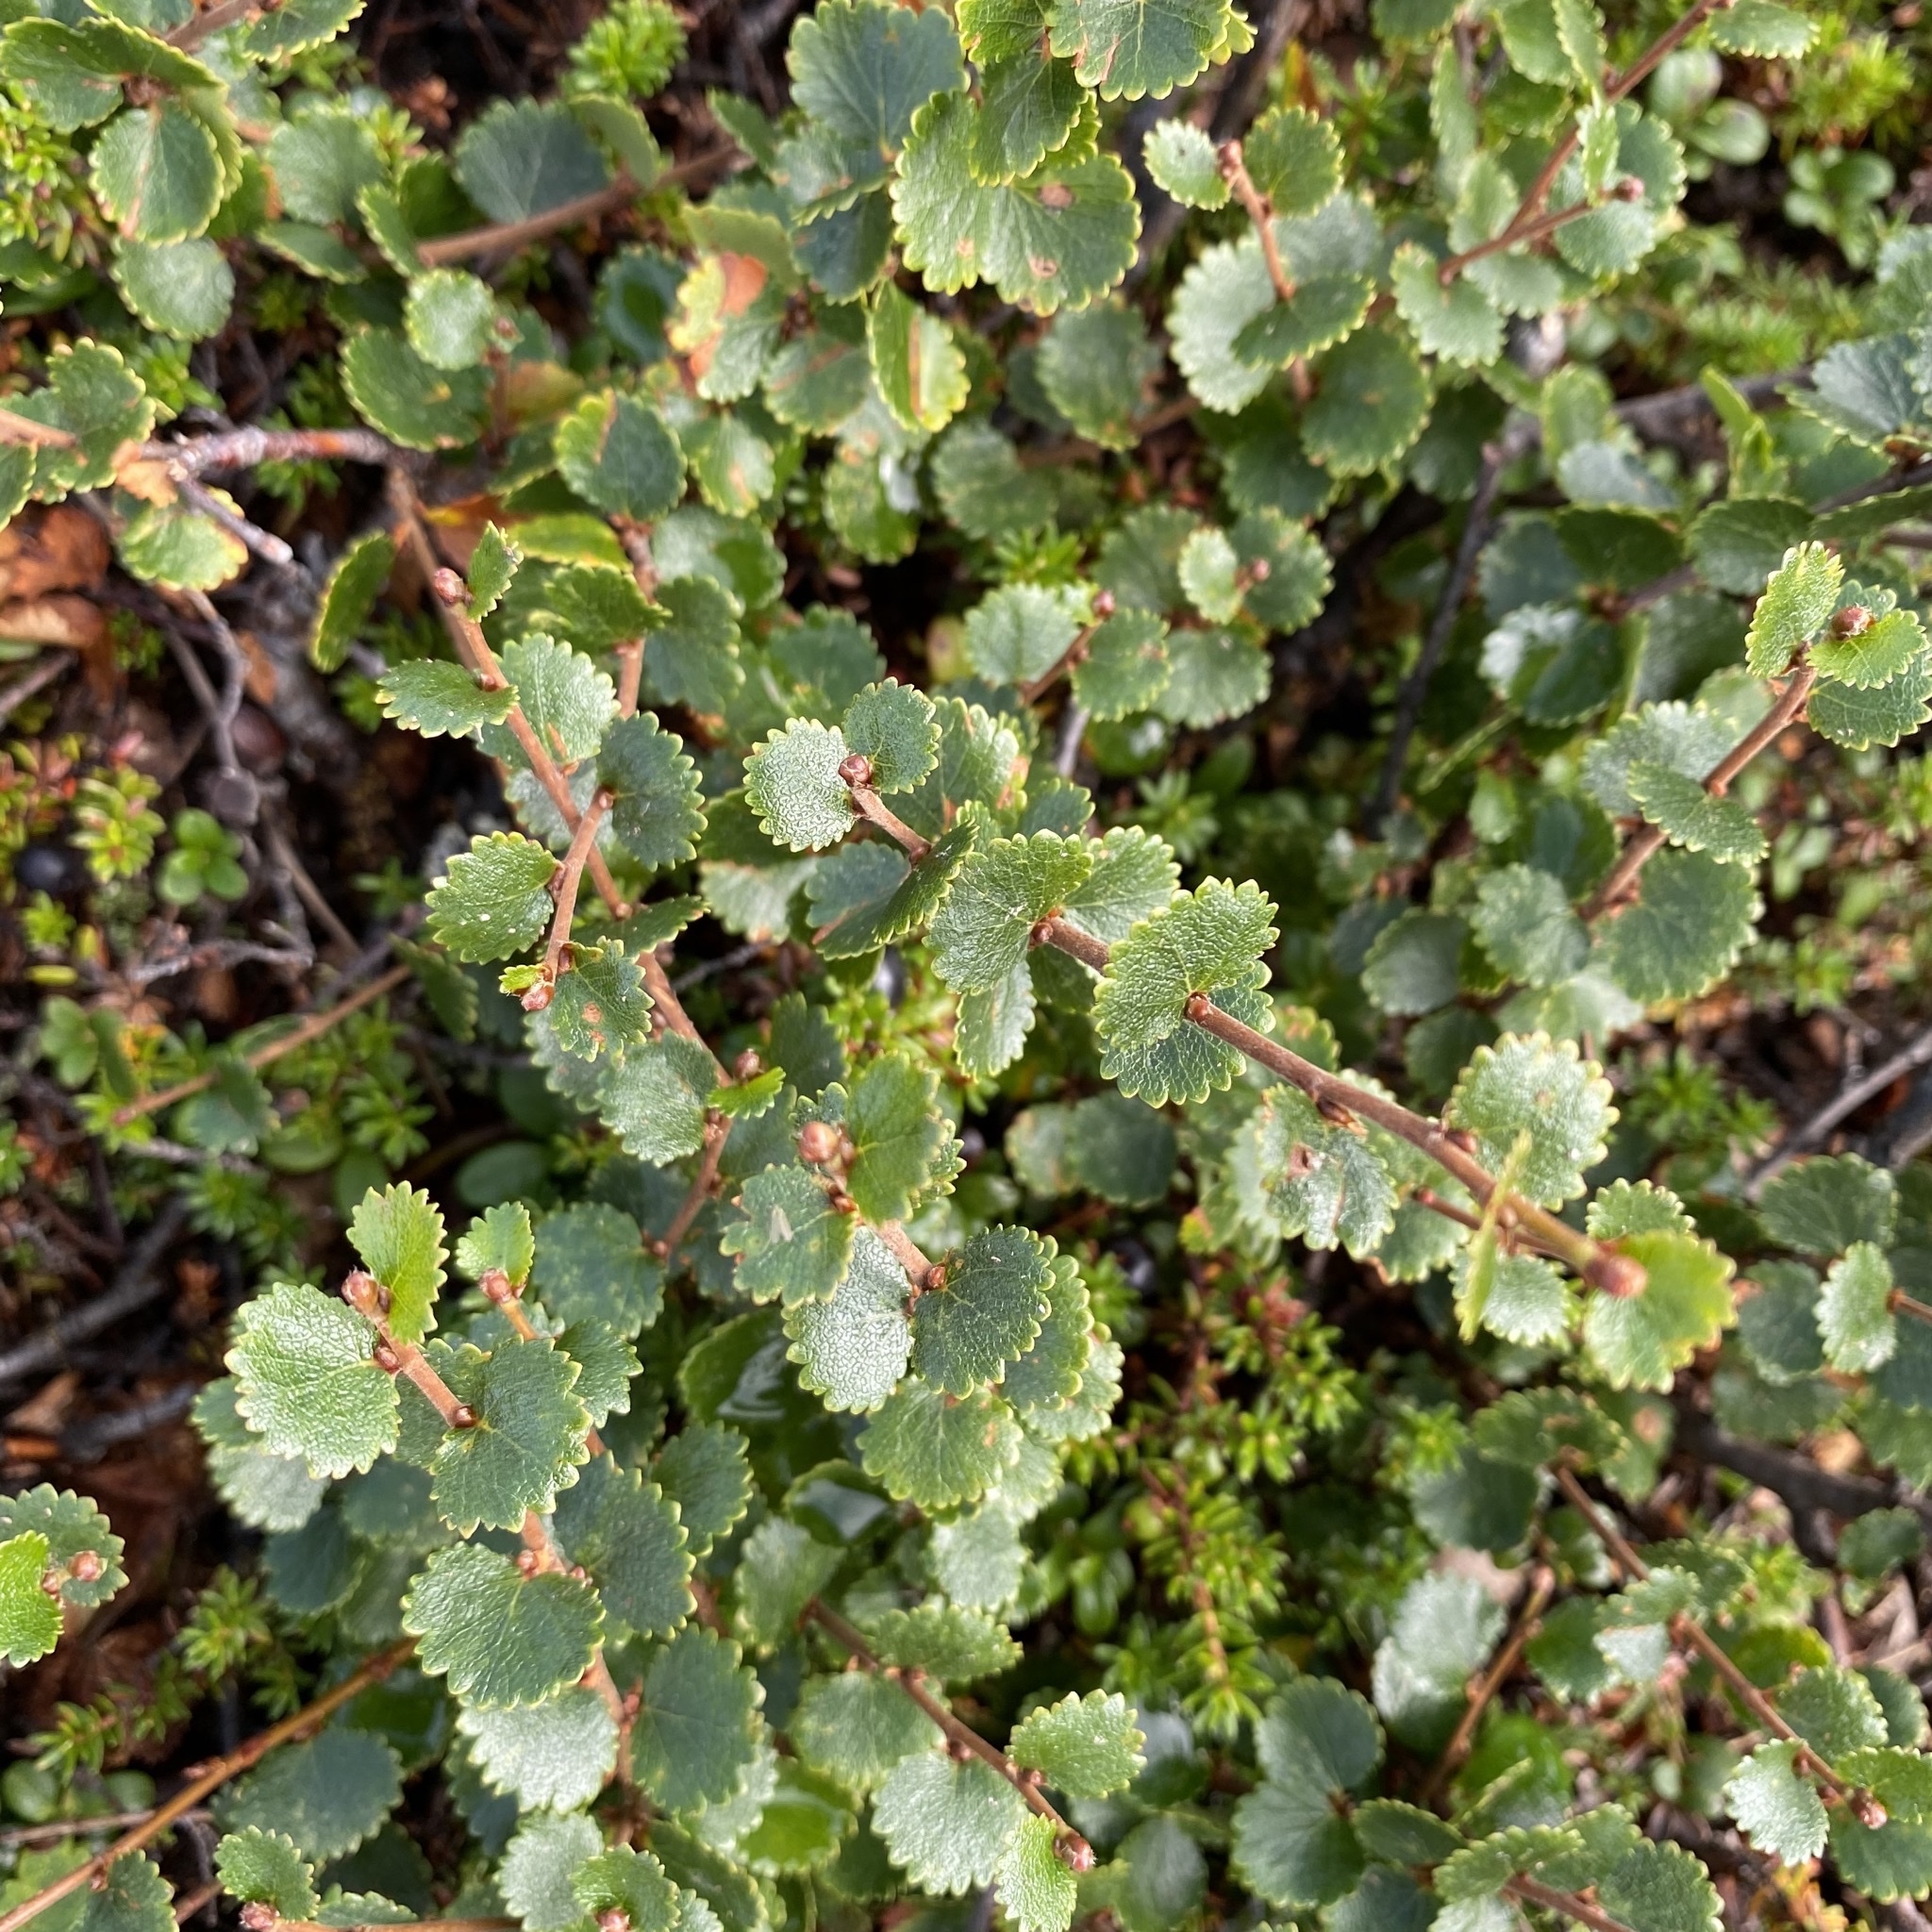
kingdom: Plantae
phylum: Tracheophyta
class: Magnoliopsida
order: Fagales
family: Betulaceae
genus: Betula
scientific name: Betula nana
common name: Arctic dwarf birch
